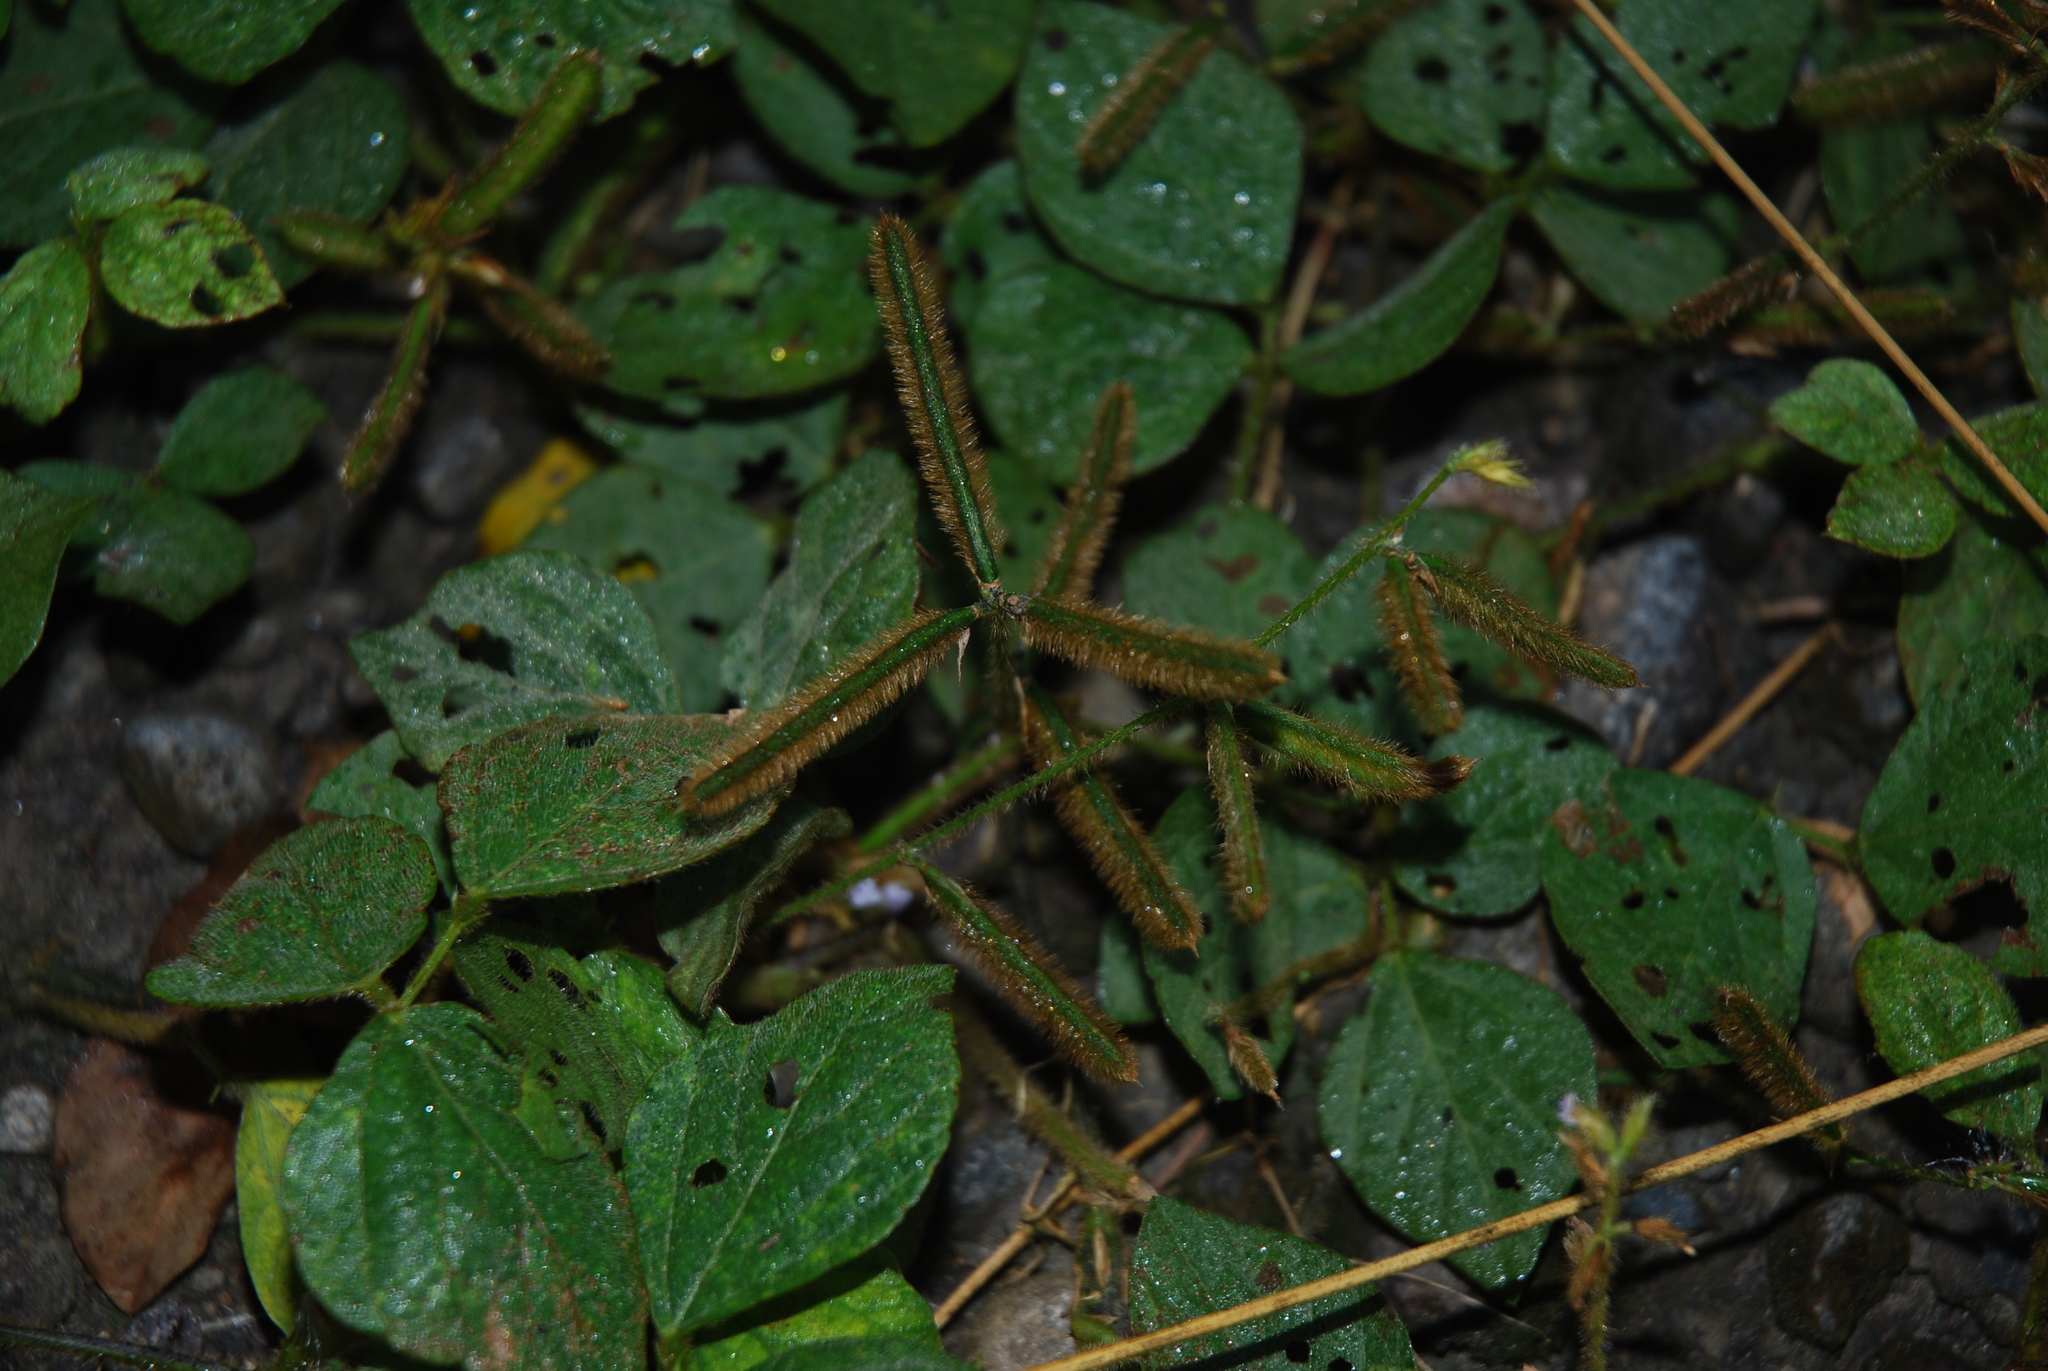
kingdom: Plantae
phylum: Tracheophyta
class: Magnoliopsida
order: Fabales
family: Fabaceae
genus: Calopogonium
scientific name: Calopogonium mucunoides
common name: Calopo
